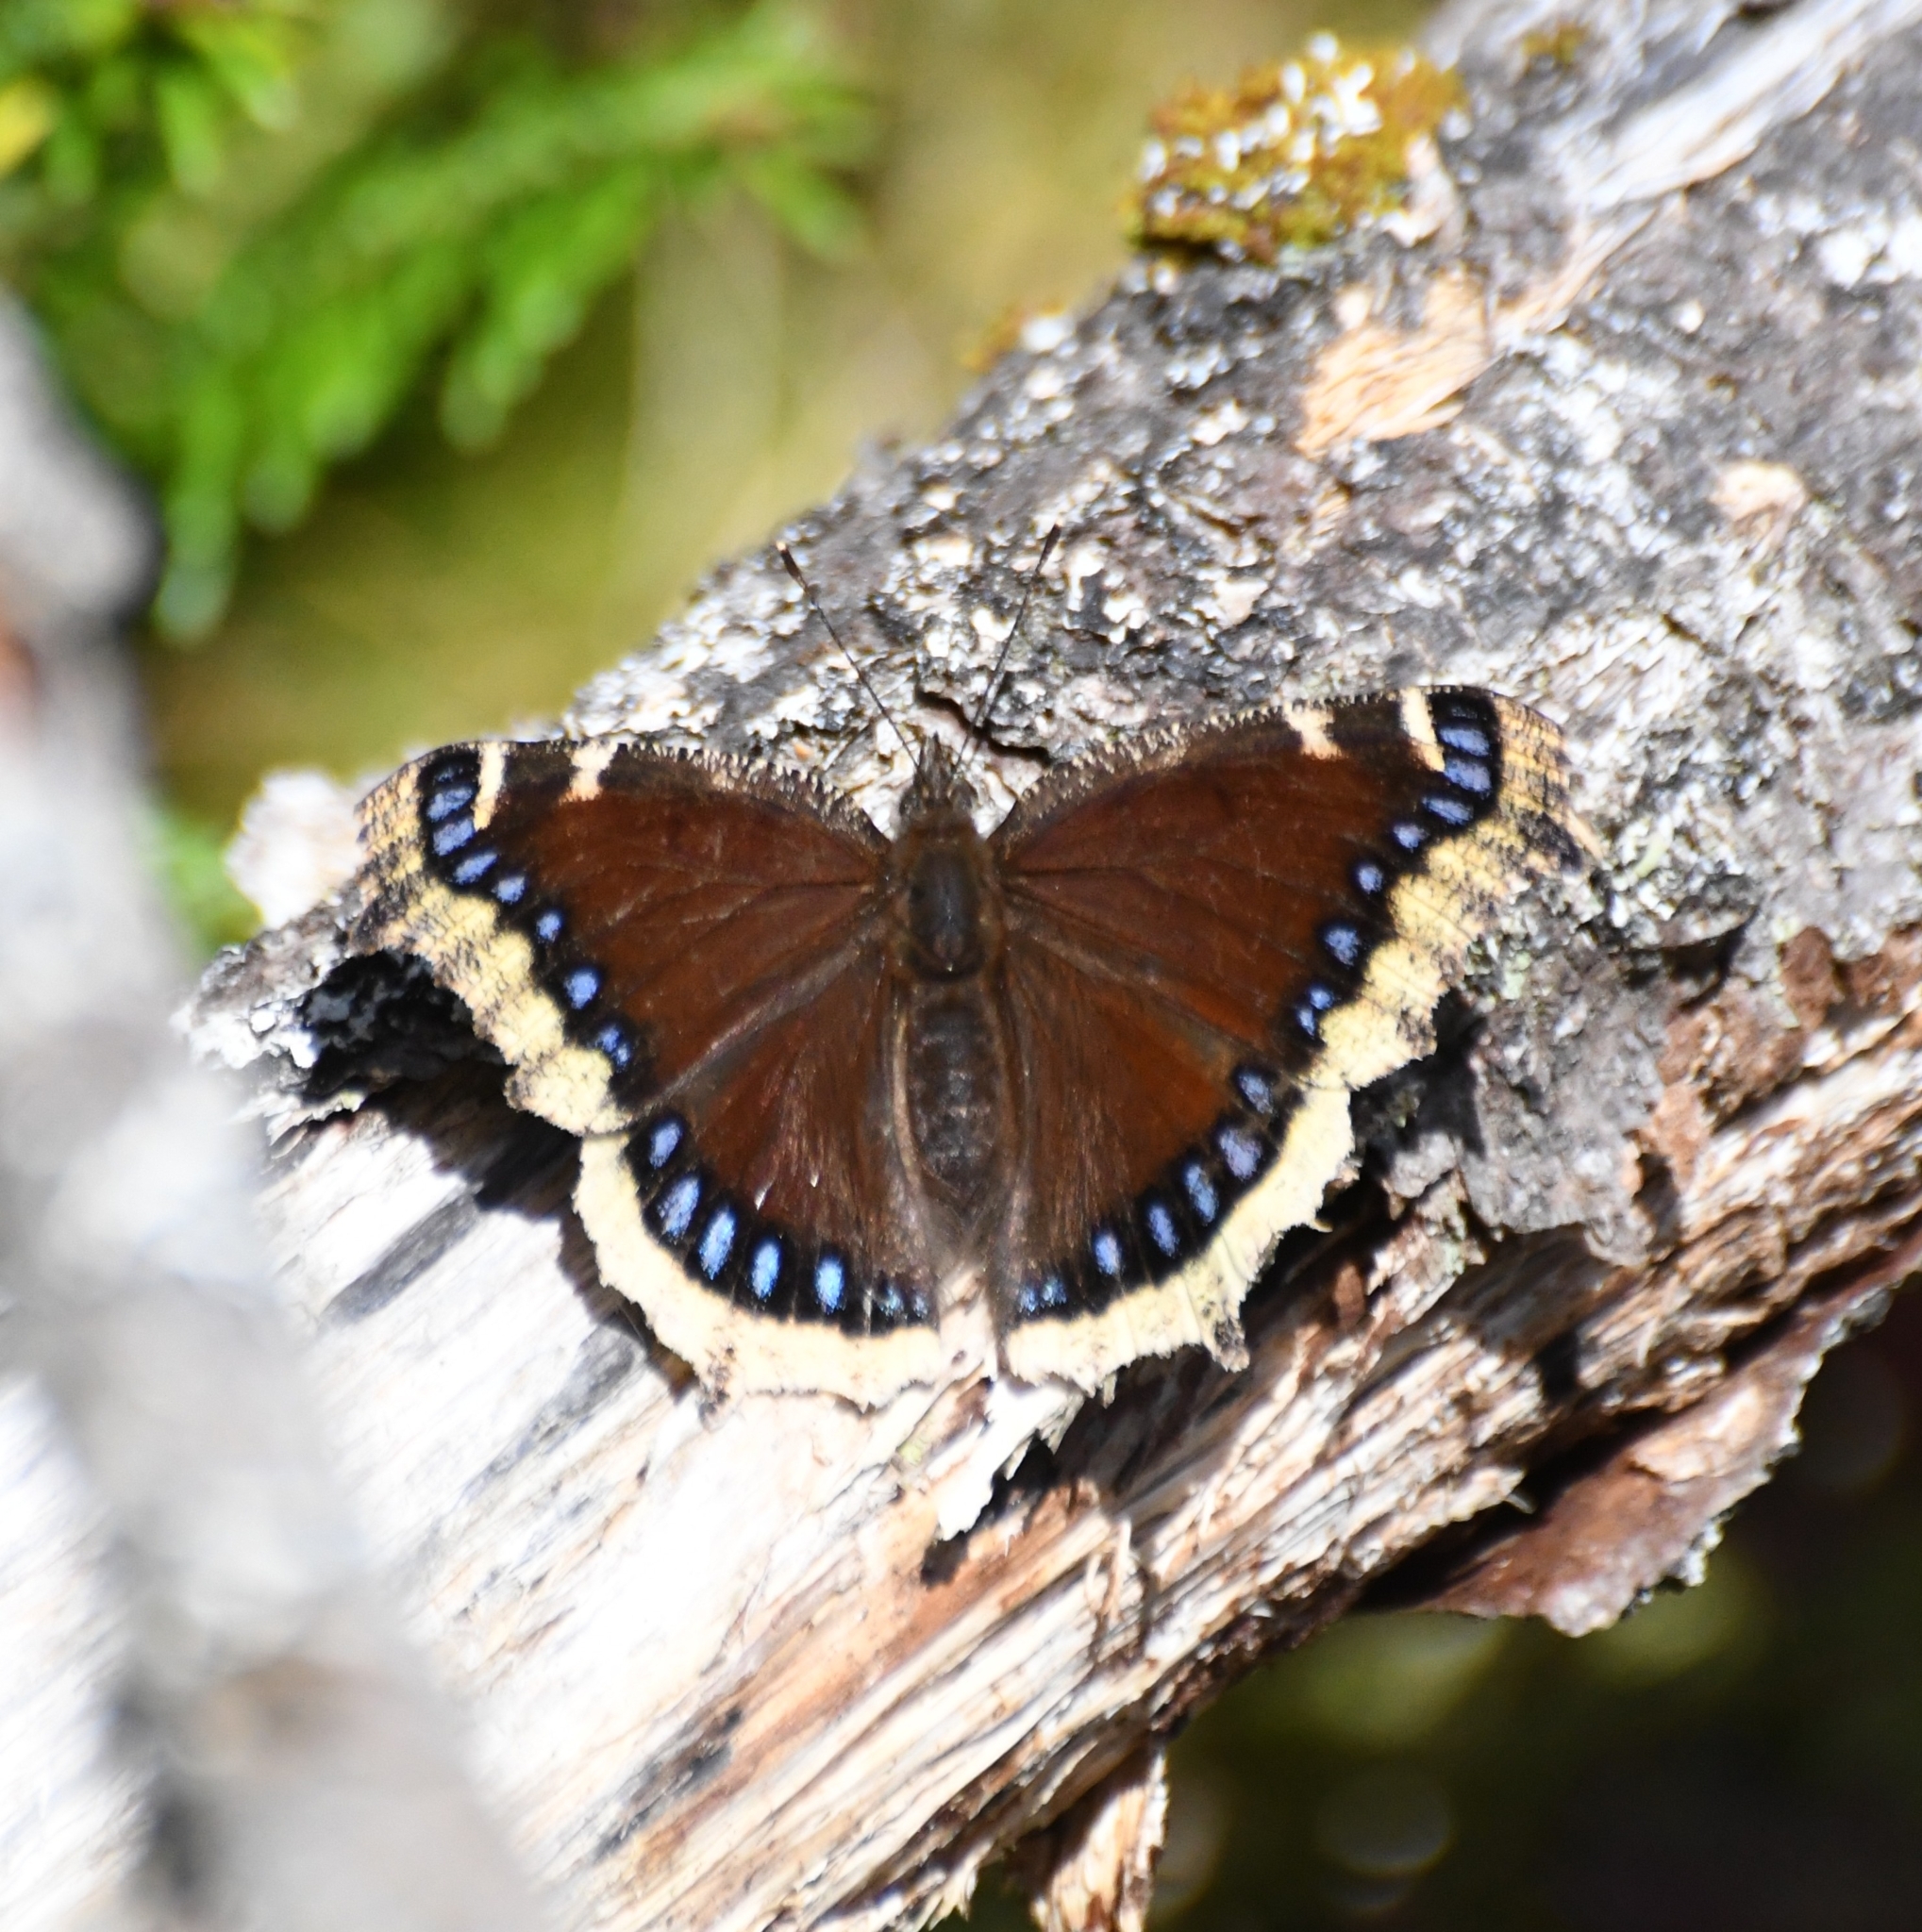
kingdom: Animalia
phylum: Arthropoda
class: Insecta
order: Lepidoptera
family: Nymphalidae
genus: Nymphalis
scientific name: Nymphalis antiopa
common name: Camberwell beauty
